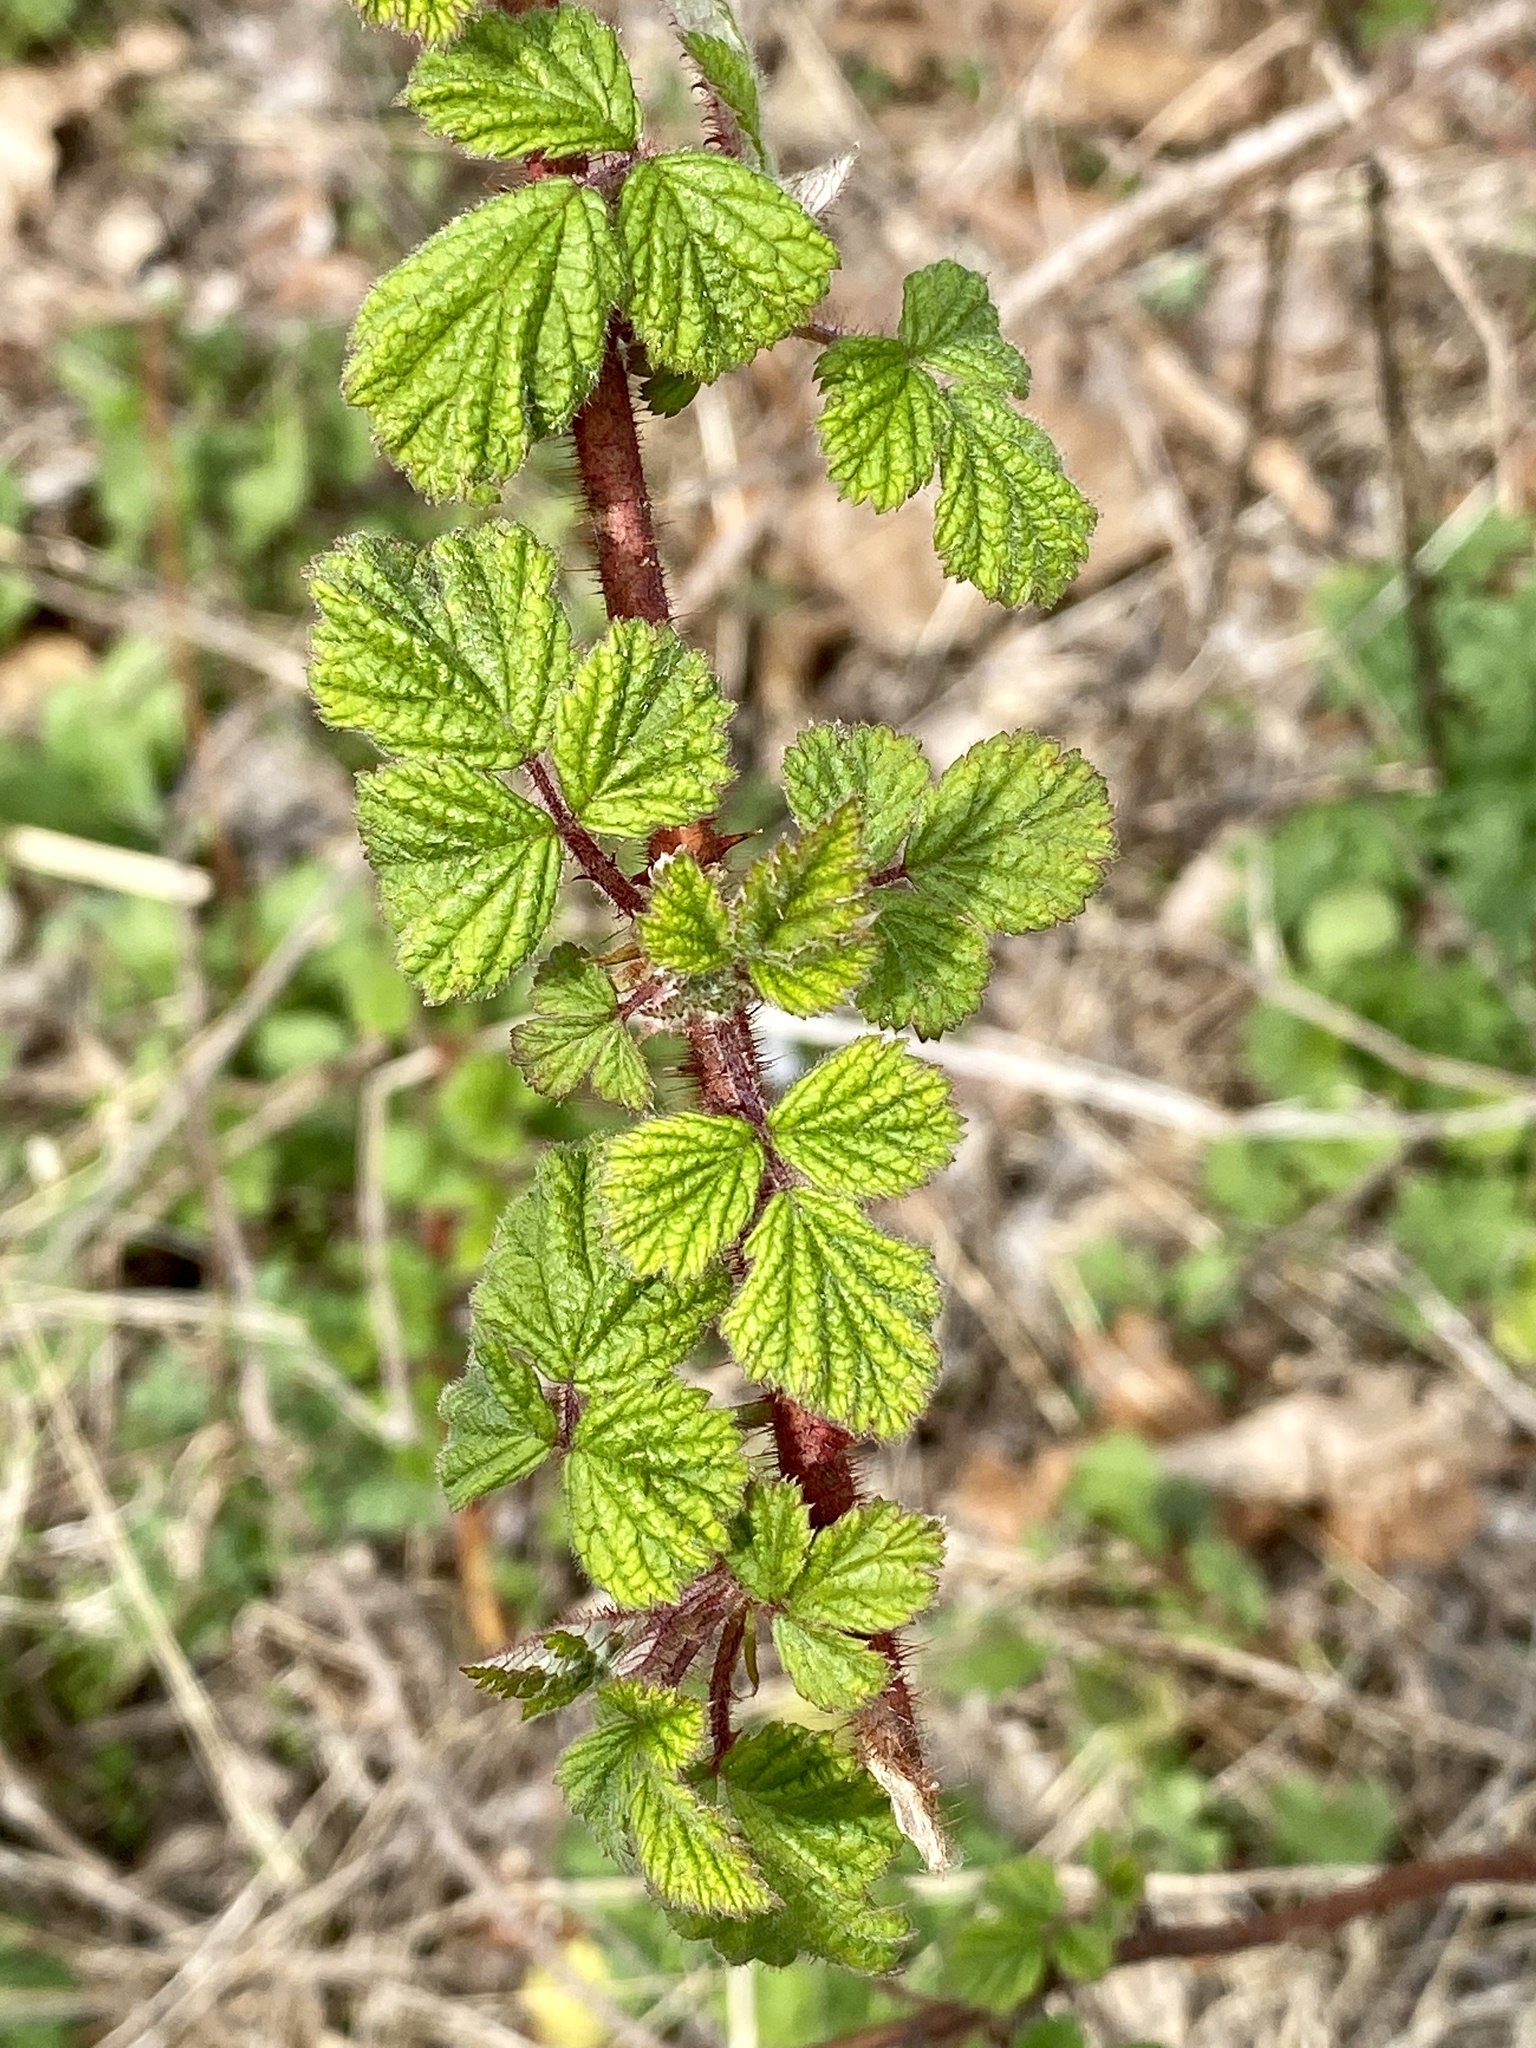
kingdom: Plantae
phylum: Tracheophyta
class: Magnoliopsida
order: Rosales
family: Rosaceae
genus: Rubus
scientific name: Rubus phoenicolasius
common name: Japanese wineberry
